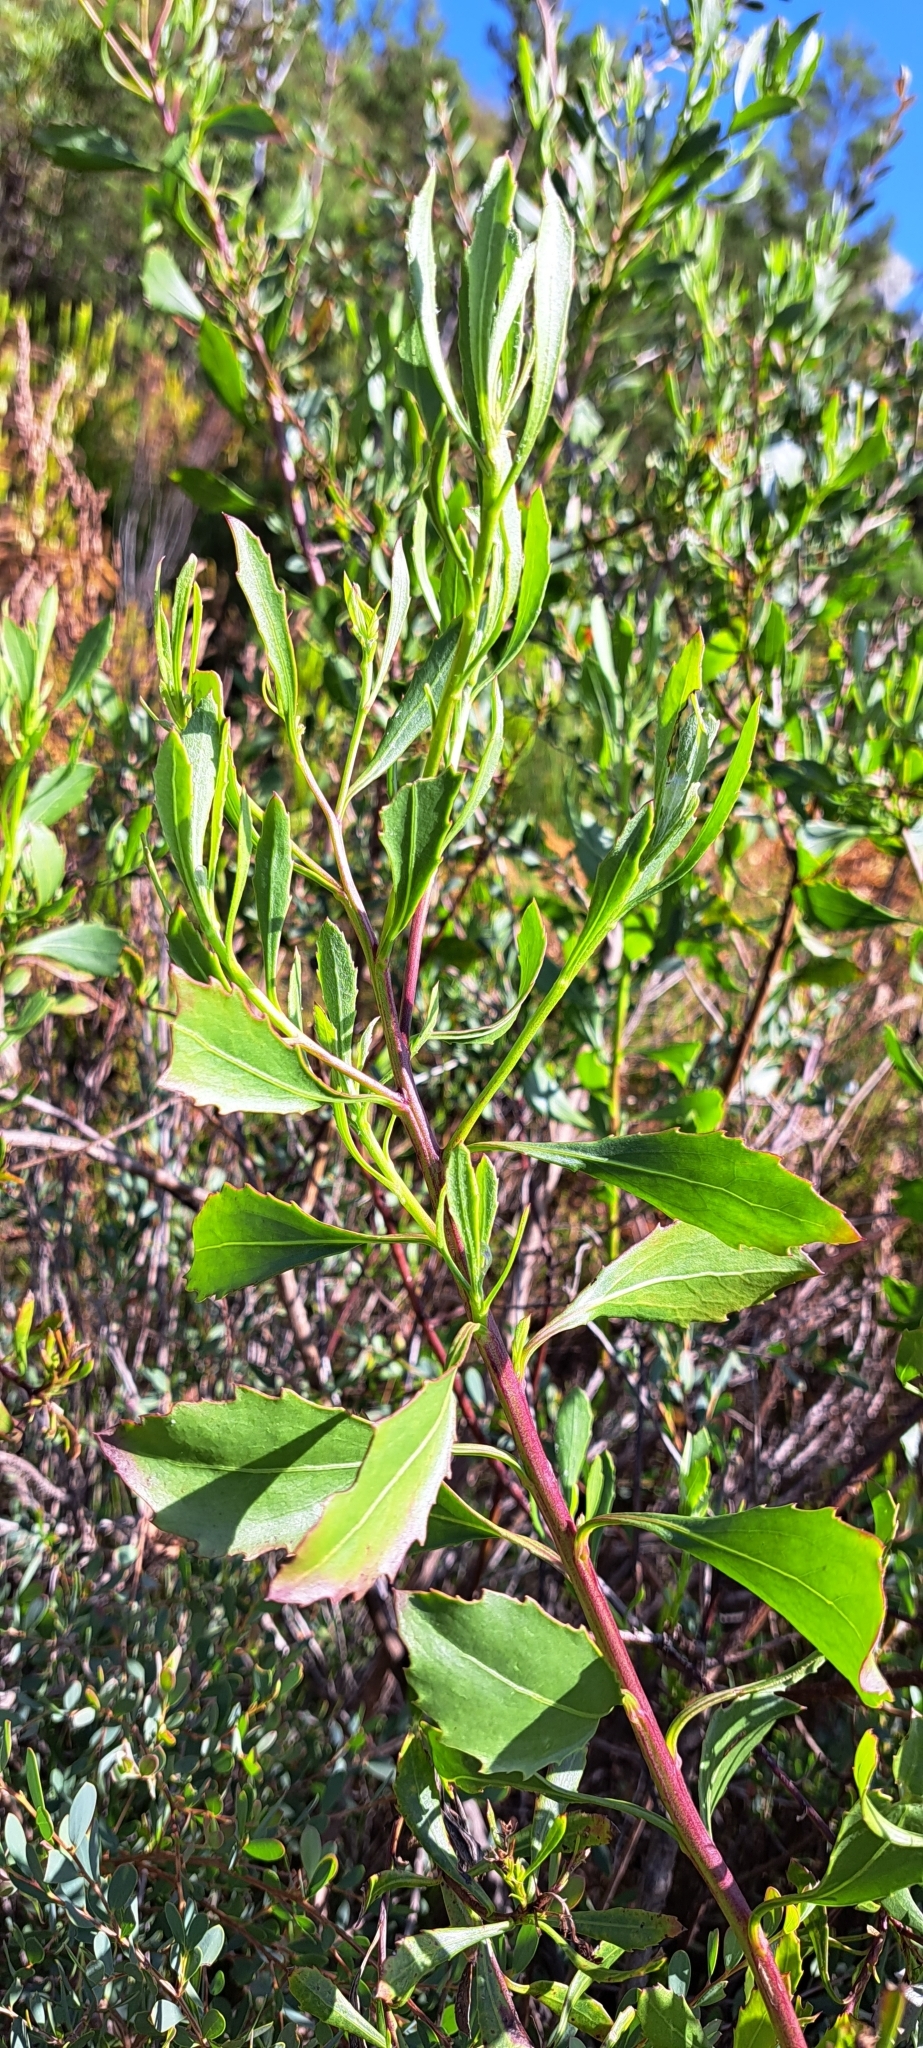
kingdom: Plantae
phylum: Tracheophyta
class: Magnoliopsida
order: Asterales
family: Asteraceae
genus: Osteospermum
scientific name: Osteospermum moniliferum
